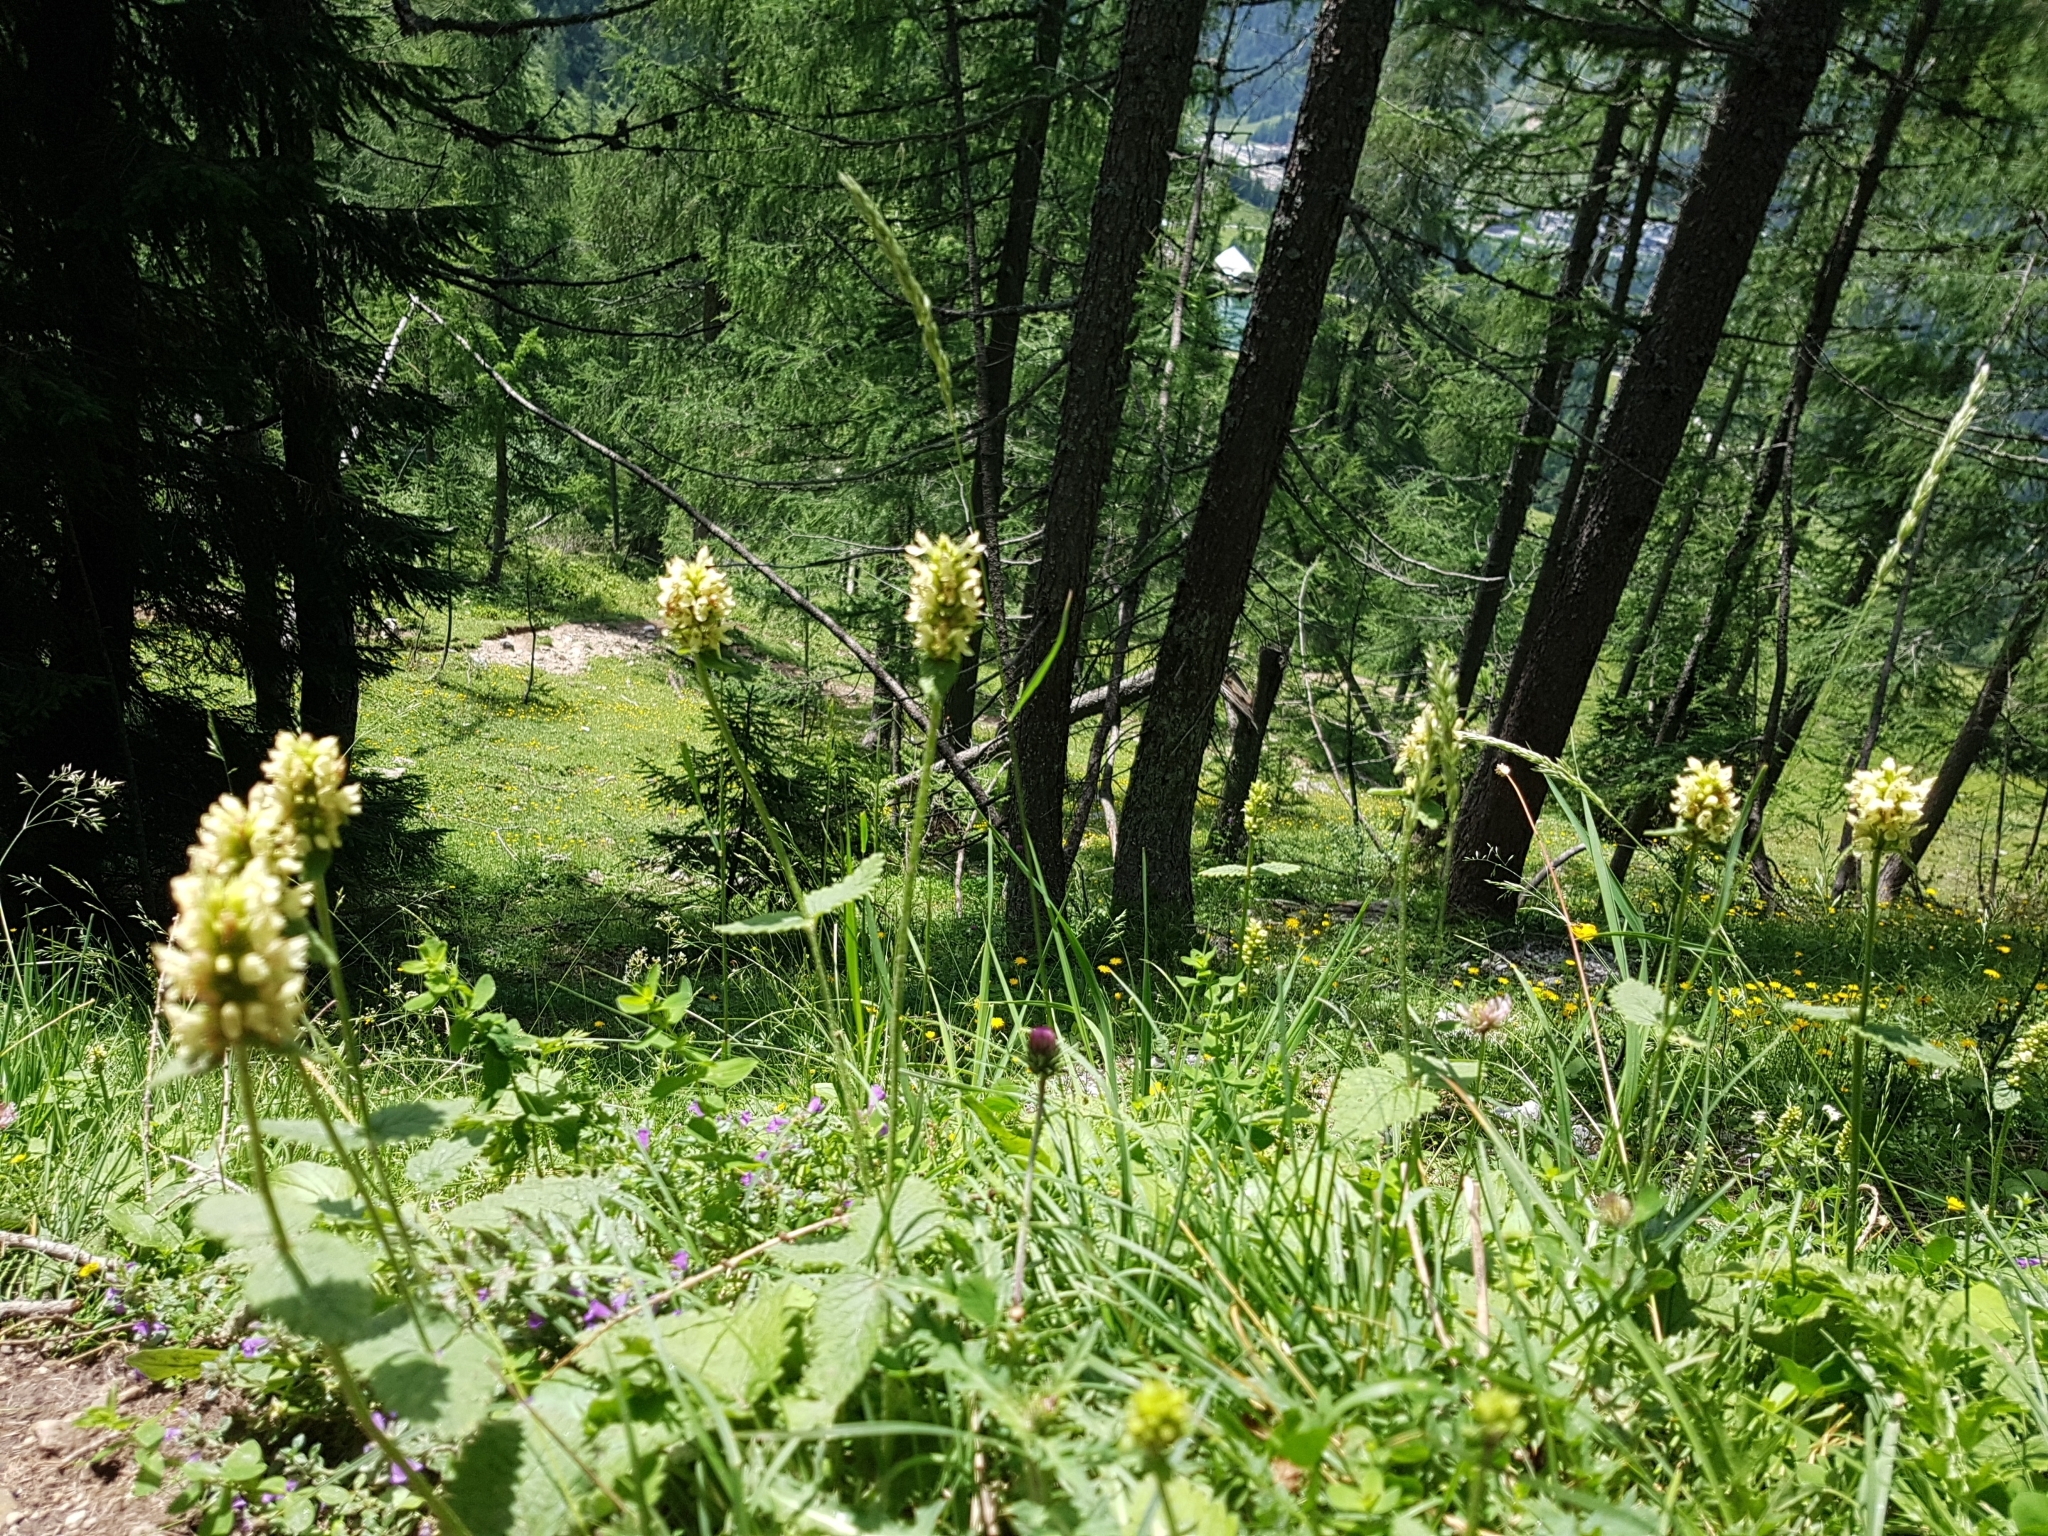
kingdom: Plantae
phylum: Tracheophyta
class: Magnoliopsida
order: Lamiales
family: Lamiaceae
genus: Betonica
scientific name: Betonica alopecuros
